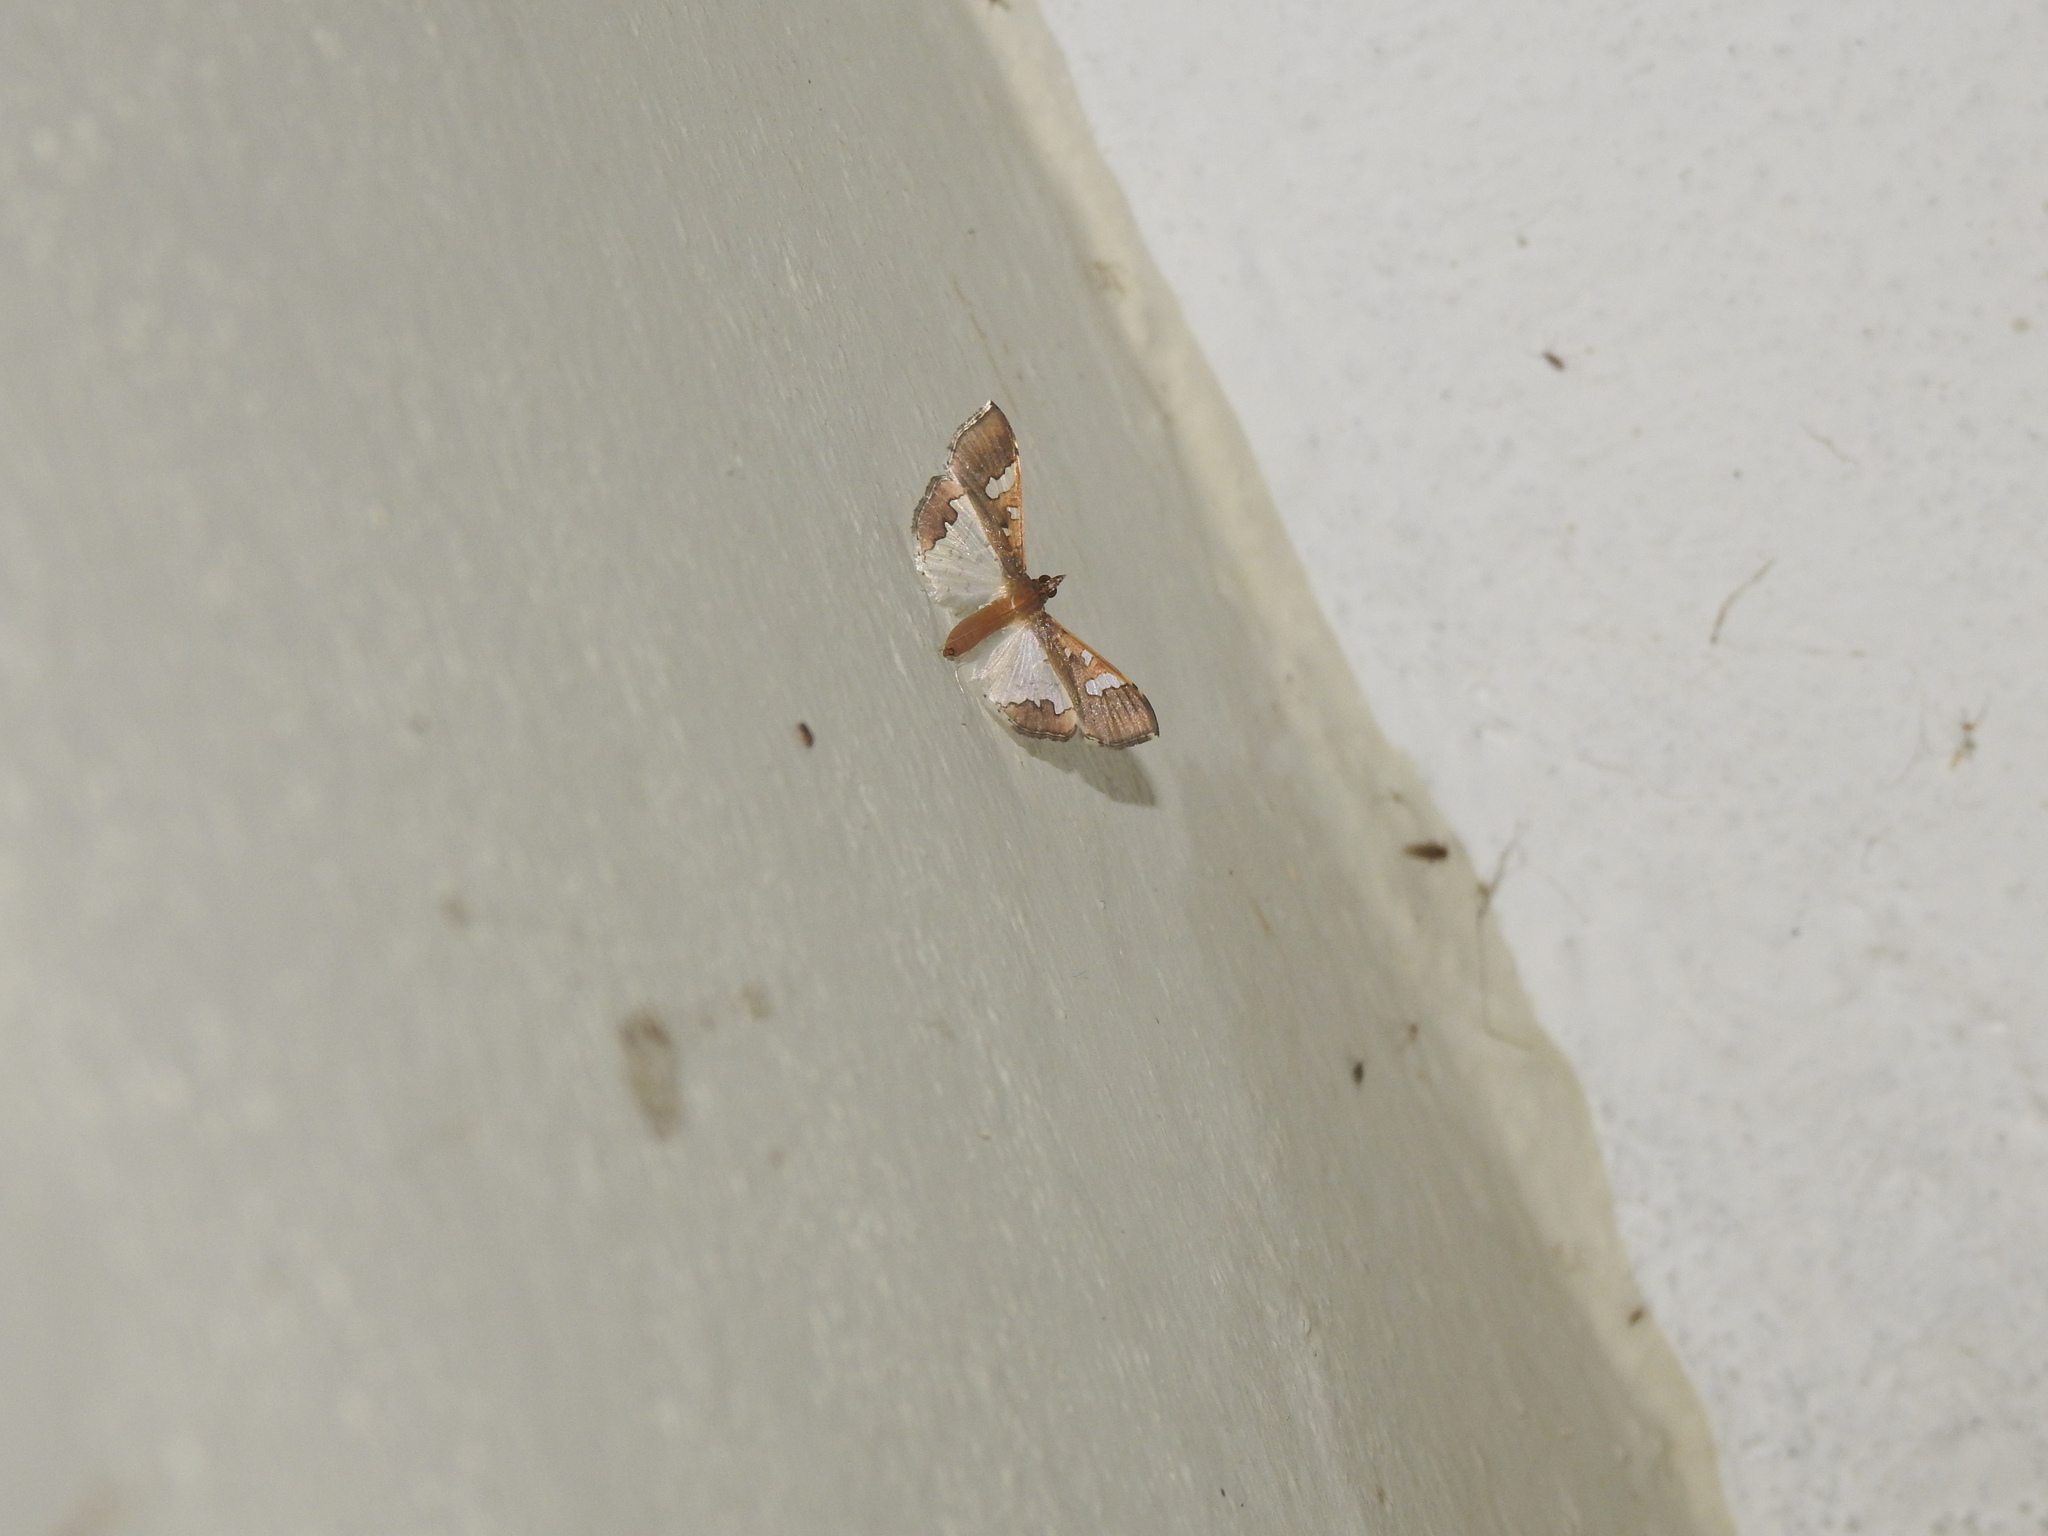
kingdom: Animalia
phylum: Arthropoda
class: Insecta
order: Lepidoptera
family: Crambidae
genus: Maruca
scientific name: Maruca vitrata
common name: Maruca pod borer
